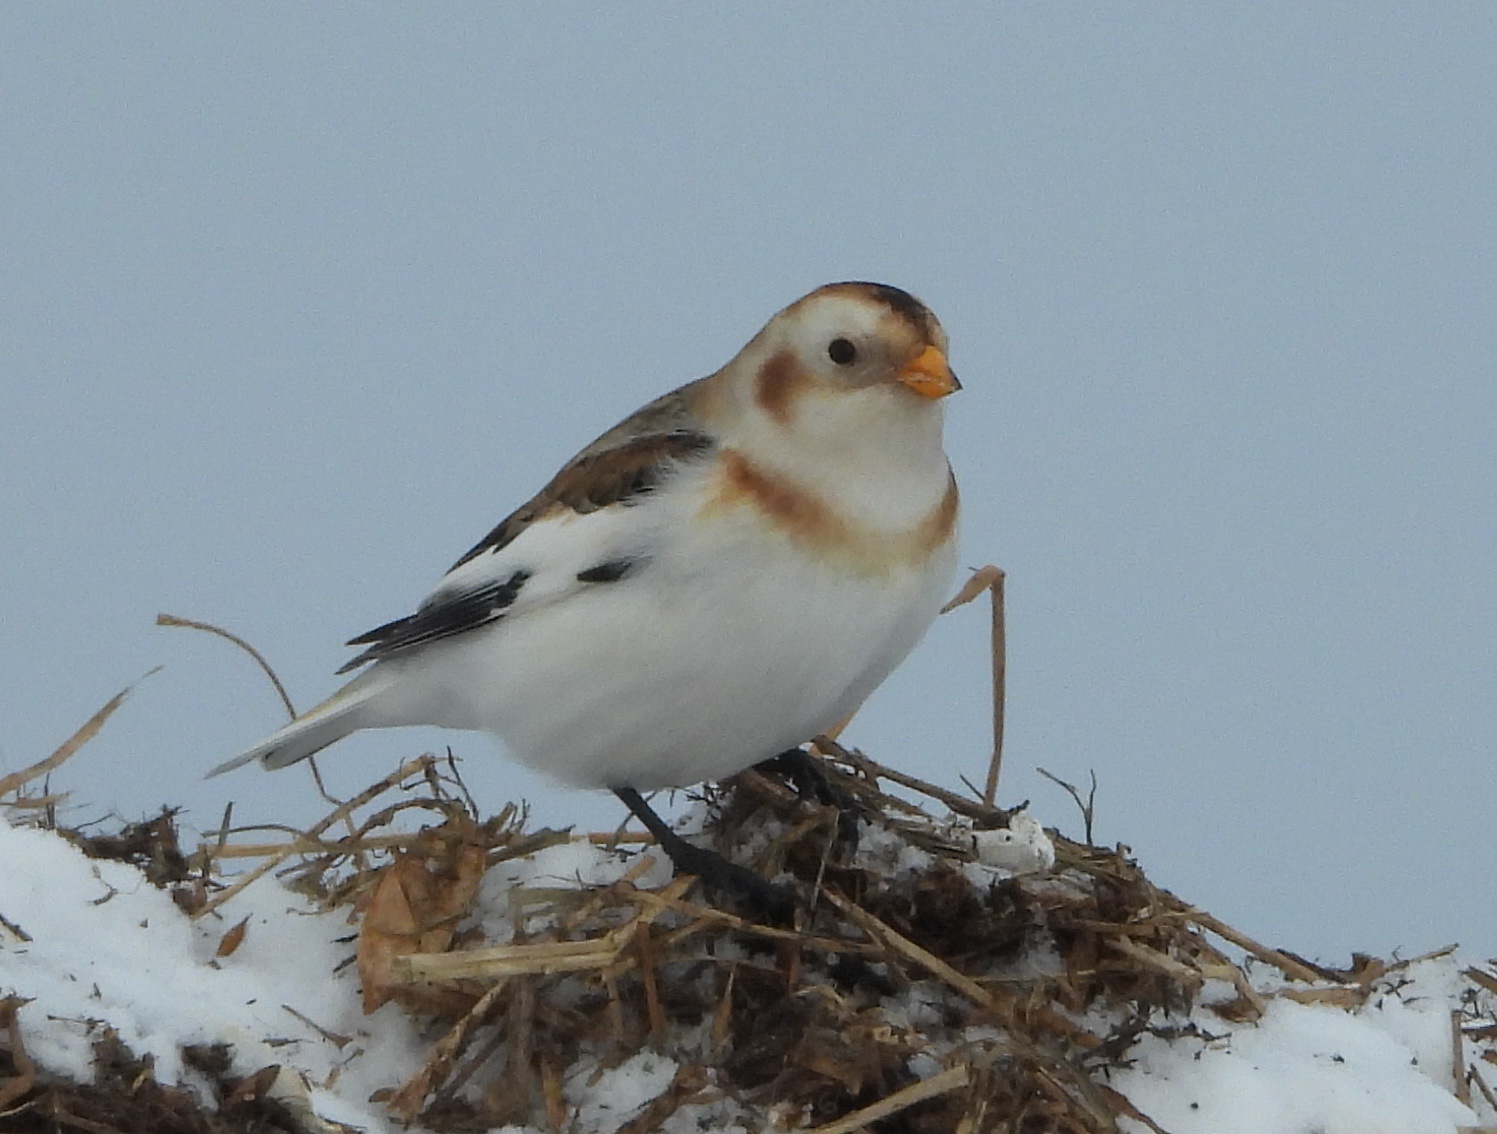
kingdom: Animalia
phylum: Chordata
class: Aves
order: Passeriformes
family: Calcariidae
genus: Plectrophenax
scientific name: Plectrophenax nivalis
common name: Snow bunting
